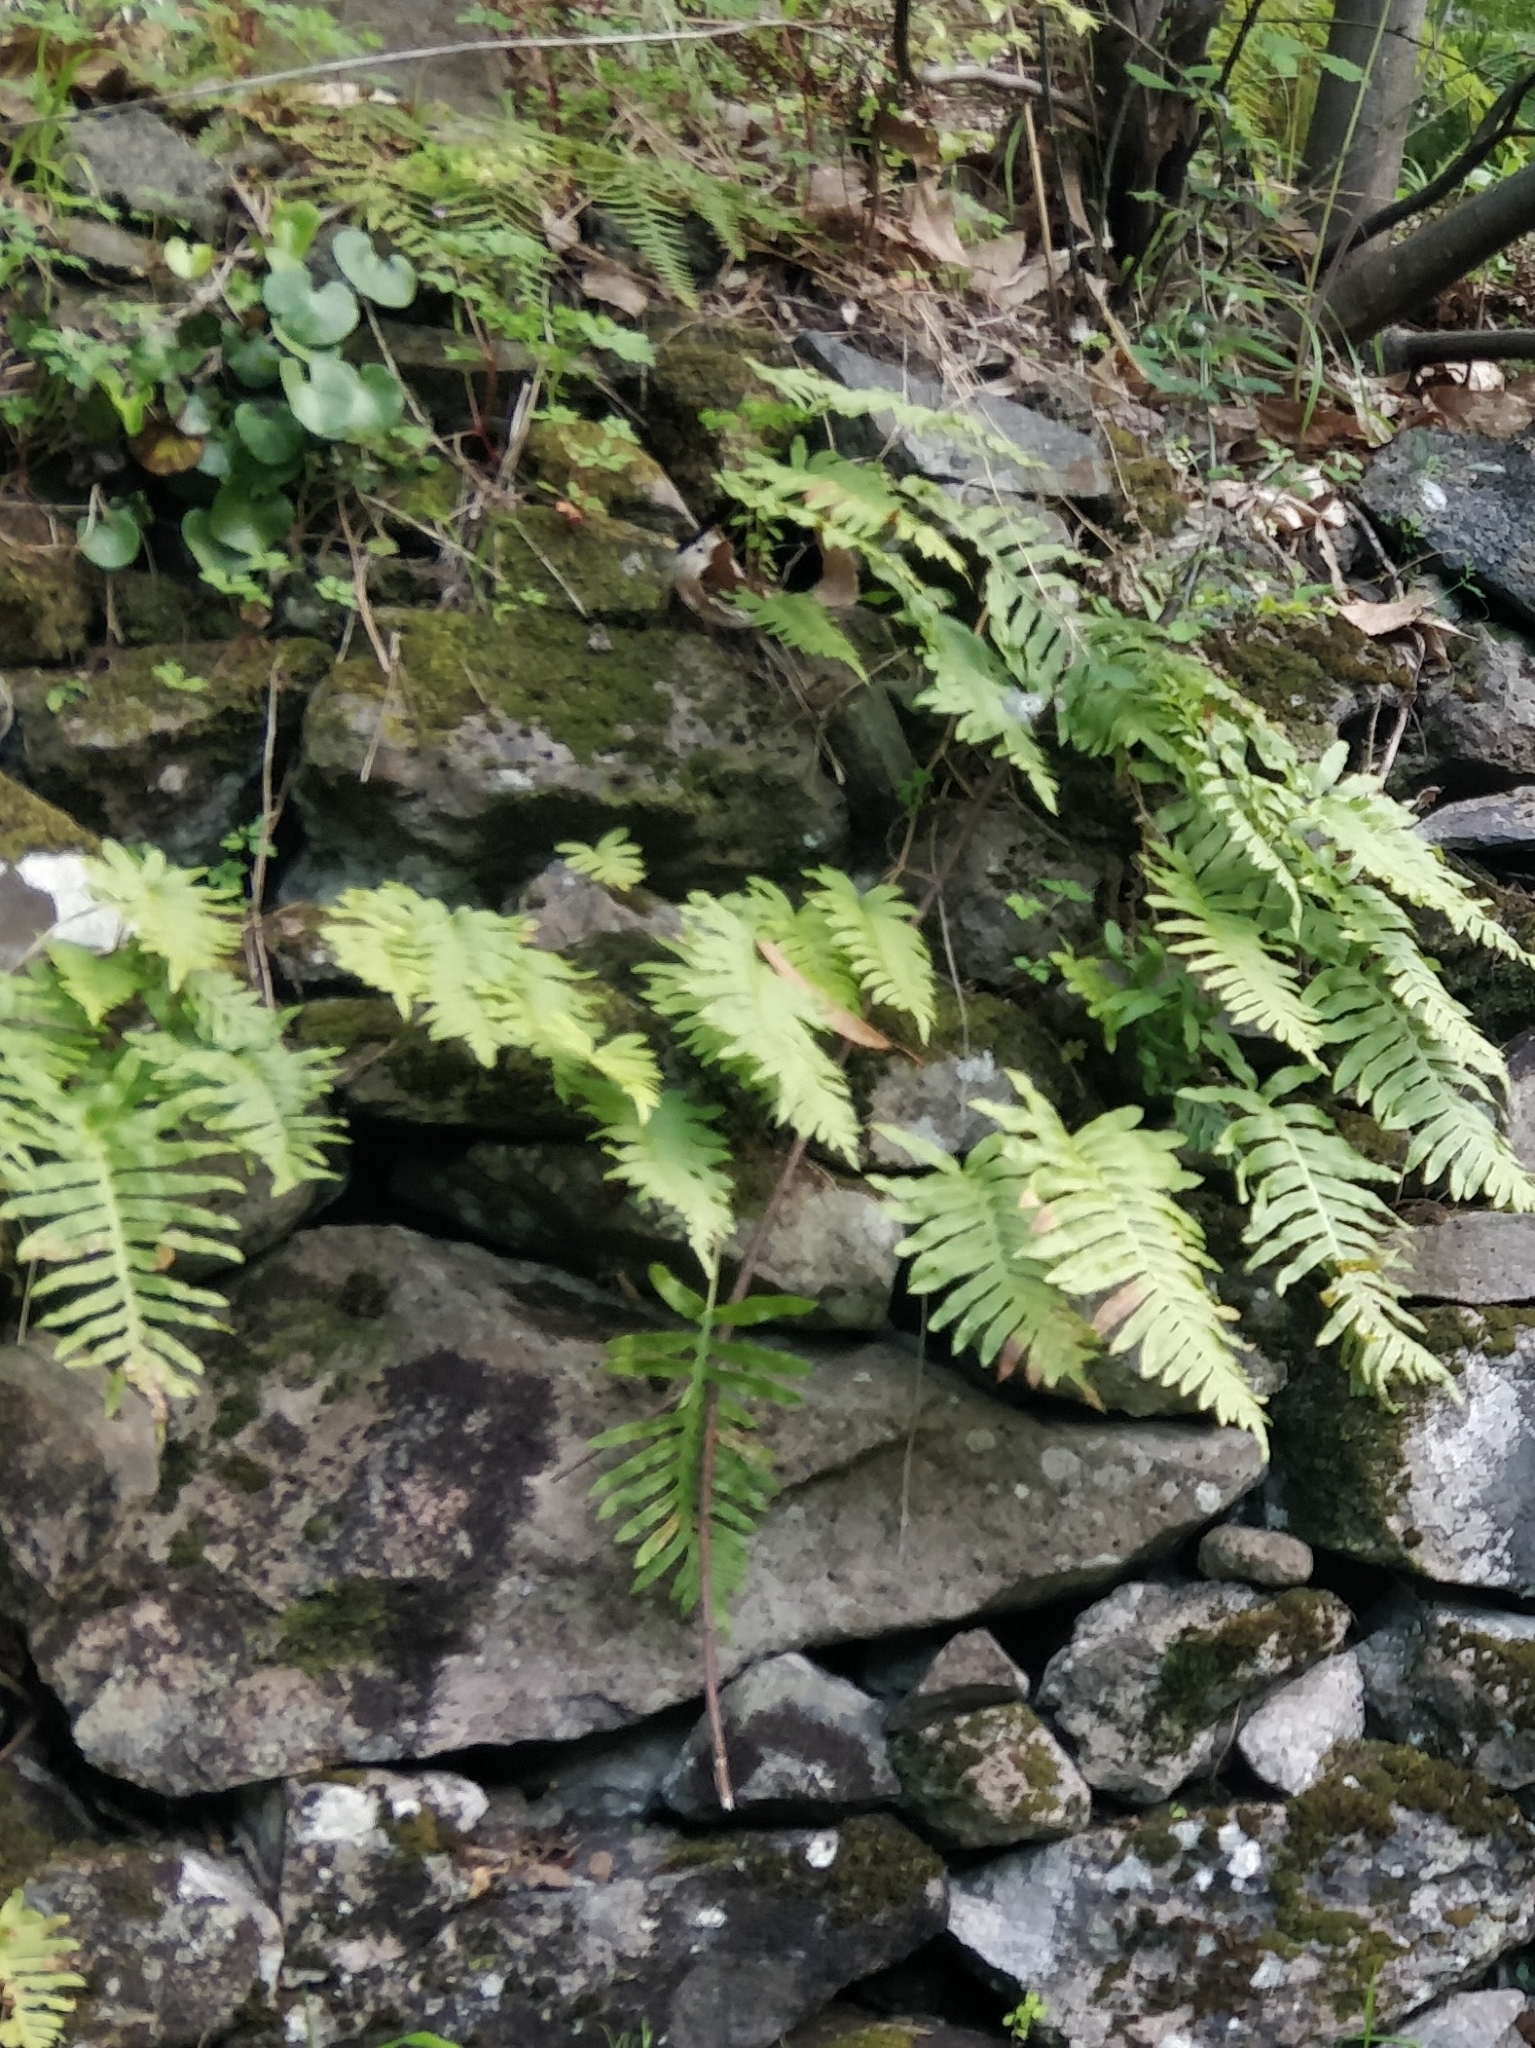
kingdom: Plantae
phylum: Tracheophyta
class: Polypodiopsida
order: Polypodiales
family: Polypodiaceae
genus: Polypodium
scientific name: Polypodium macaronesicum
